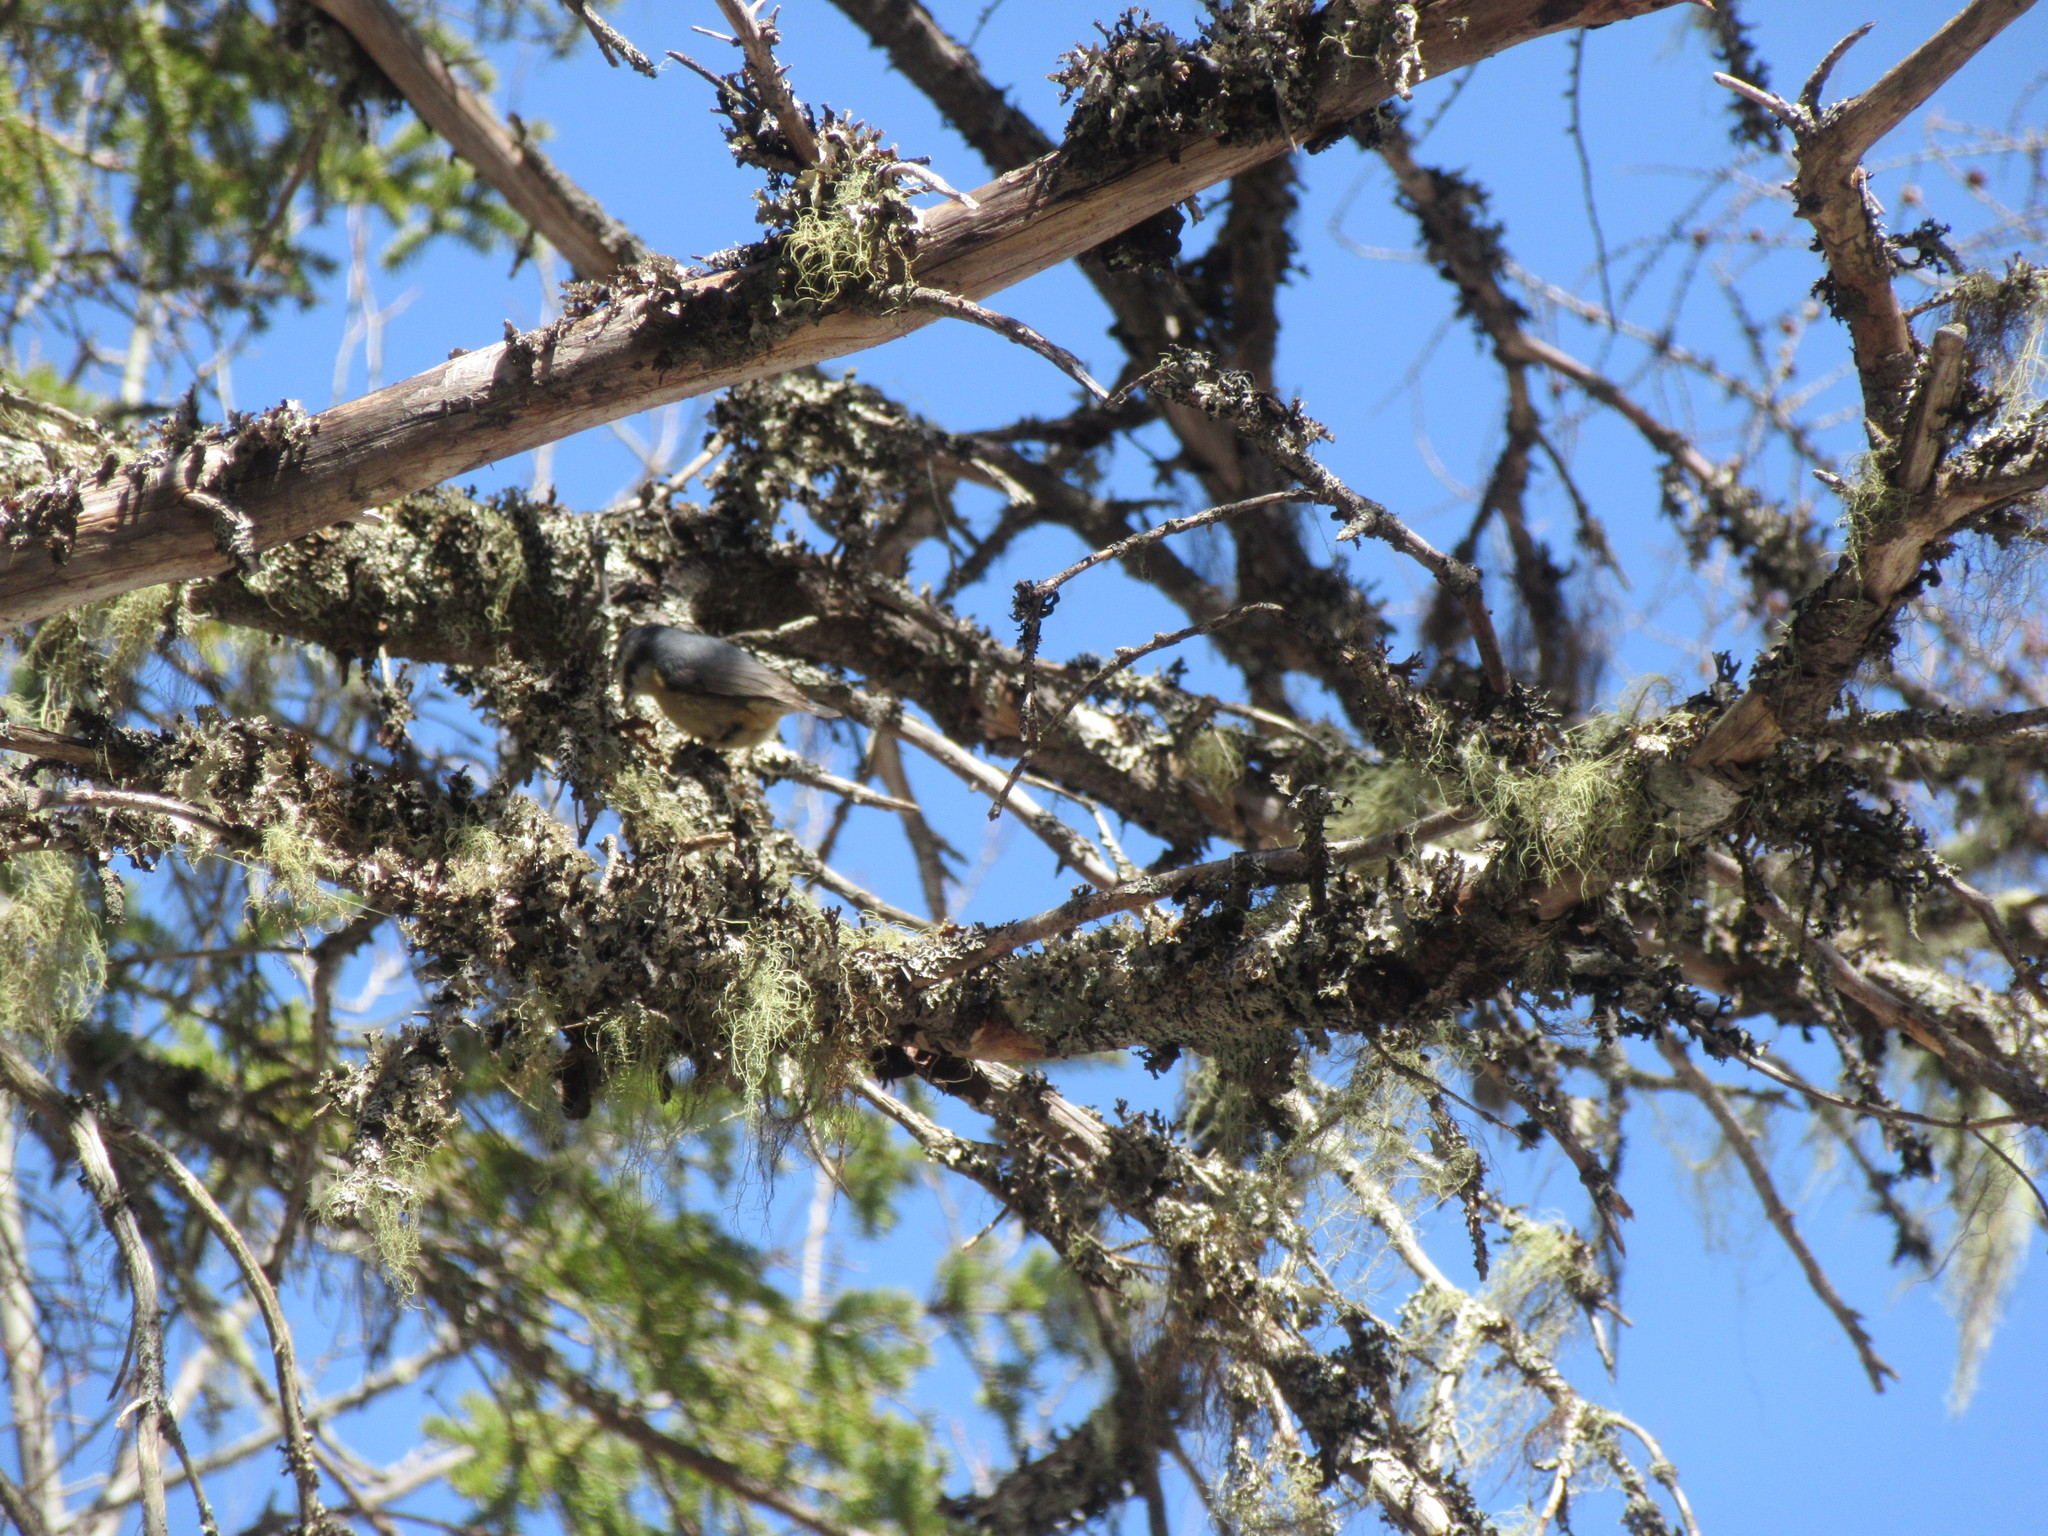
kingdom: Animalia
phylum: Chordata
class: Aves
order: Passeriformes
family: Sittidae
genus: Sitta
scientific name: Sitta canadensis
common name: Red-breasted nuthatch
